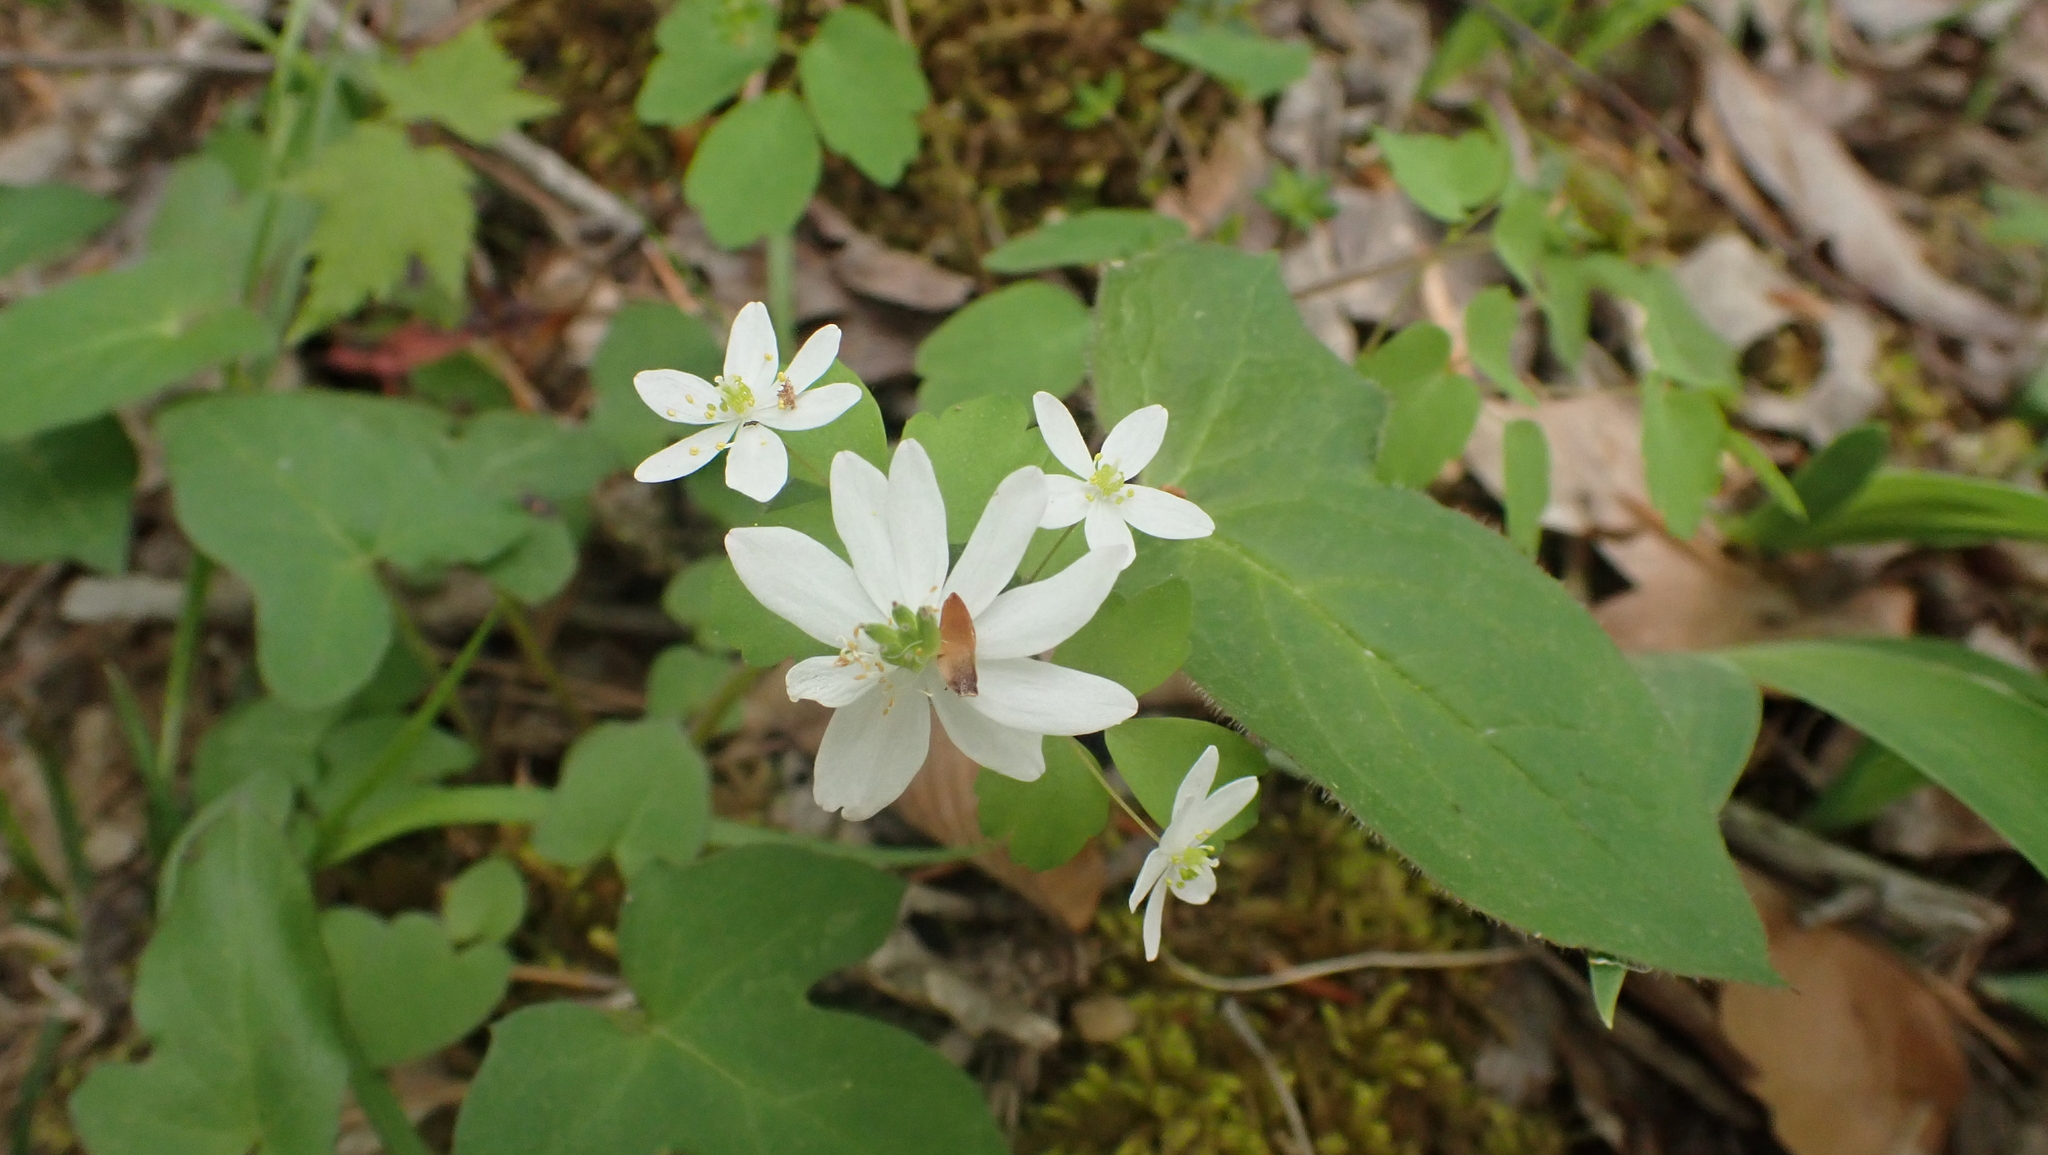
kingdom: Plantae
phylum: Tracheophyta
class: Magnoliopsida
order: Ranunculales
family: Ranunculaceae
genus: Thalictrum
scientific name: Thalictrum thalictroides
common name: Rue-anemone
